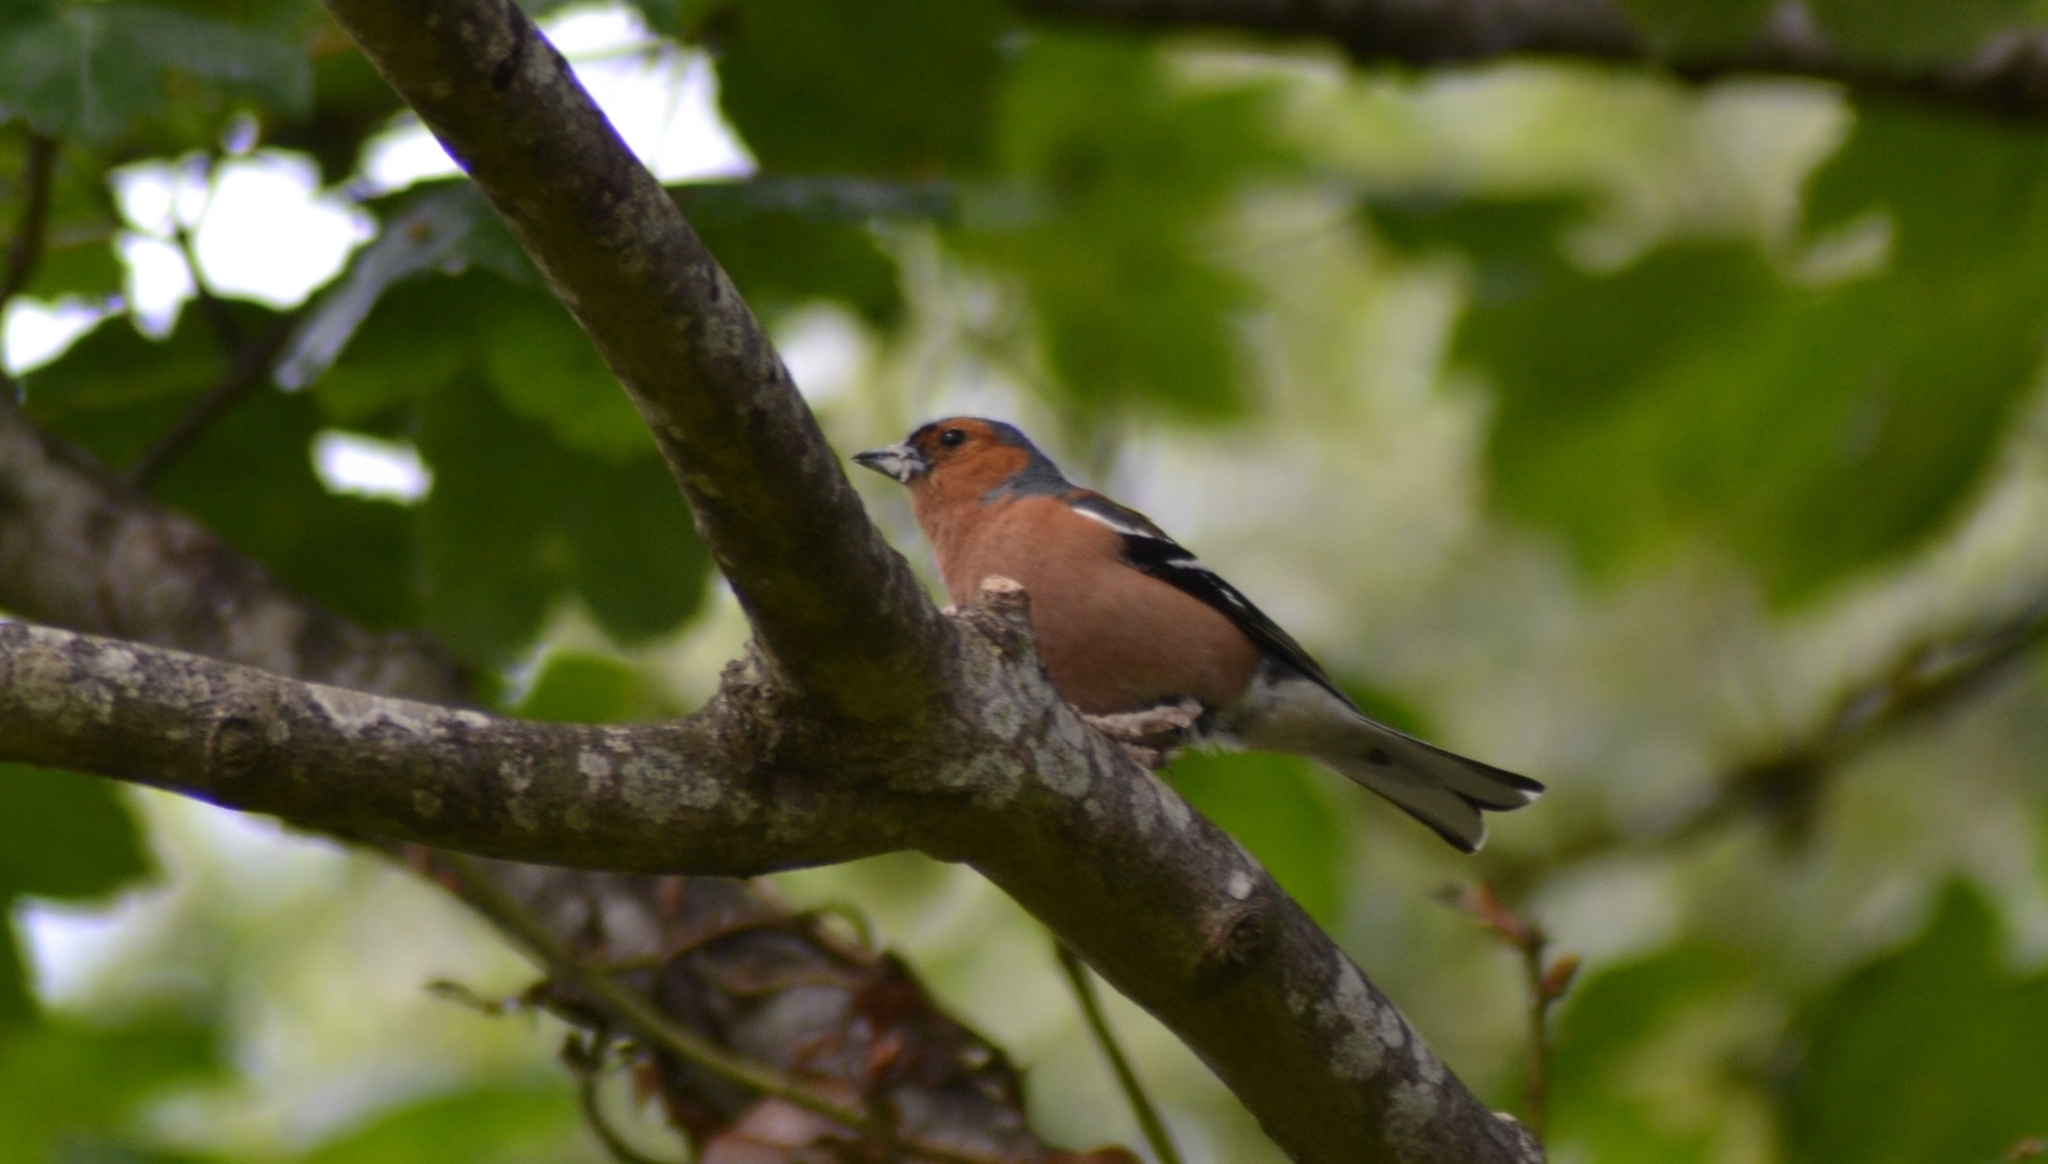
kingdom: Animalia
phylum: Chordata
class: Aves
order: Passeriformes
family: Fringillidae
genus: Fringilla
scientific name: Fringilla coelebs
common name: Common chaffinch
